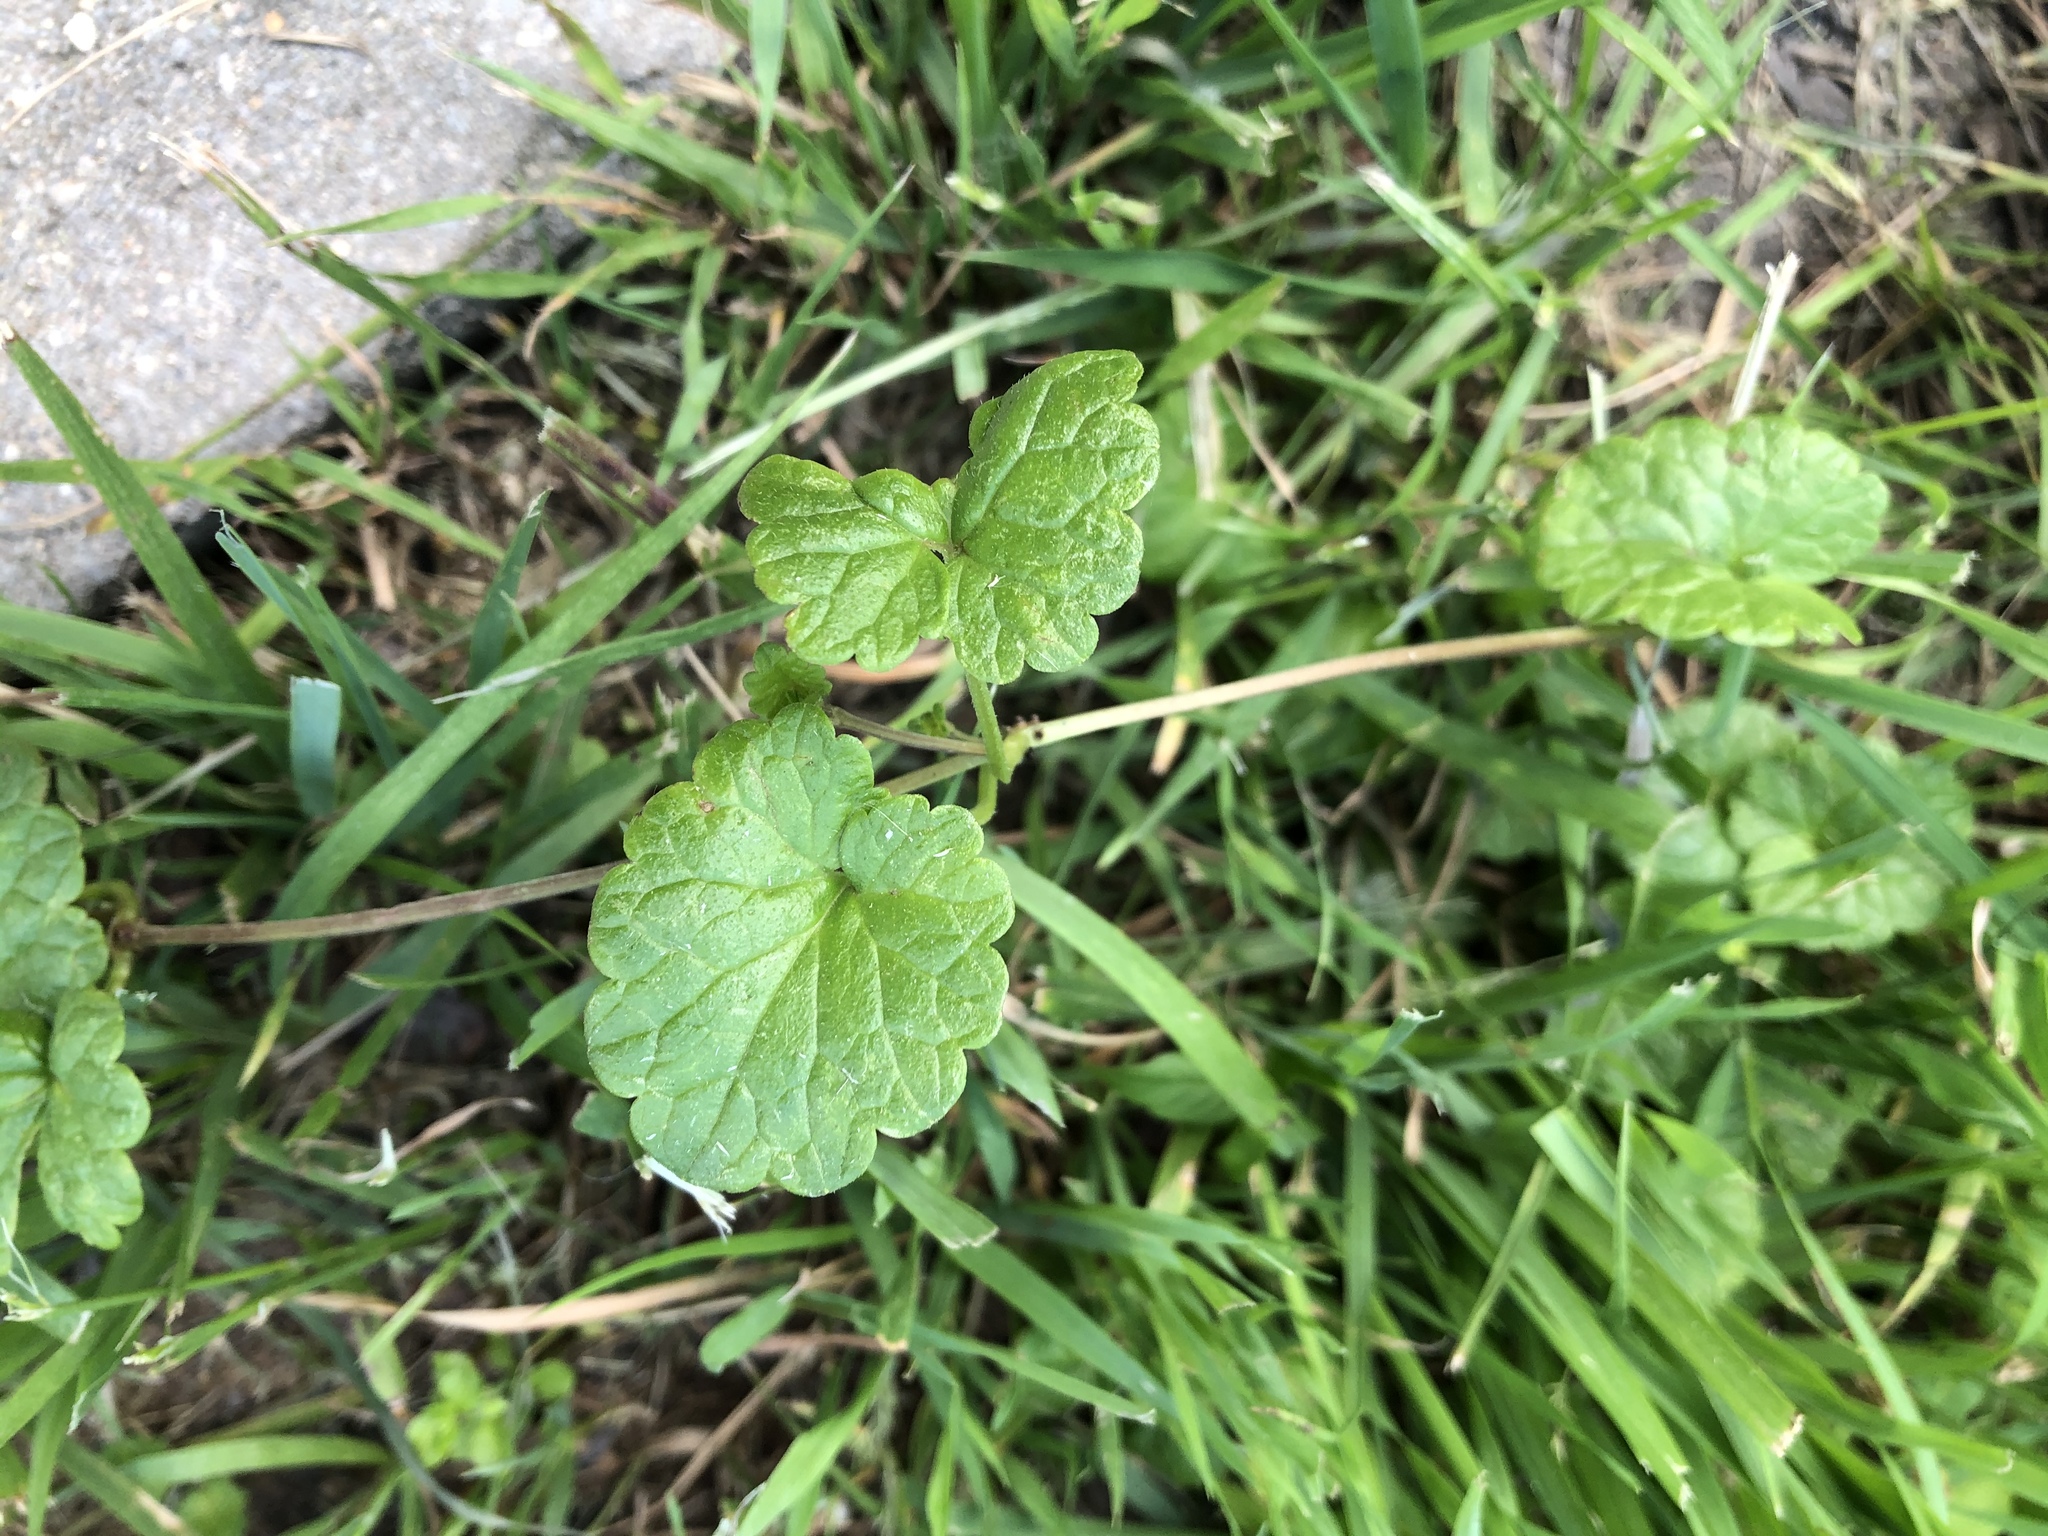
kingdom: Plantae
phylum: Tracheophyta
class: Magnoliopsida
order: Lamiales
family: Lamiaceae
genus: Glechoma
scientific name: Glechoma hederacea
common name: Ground ivy
